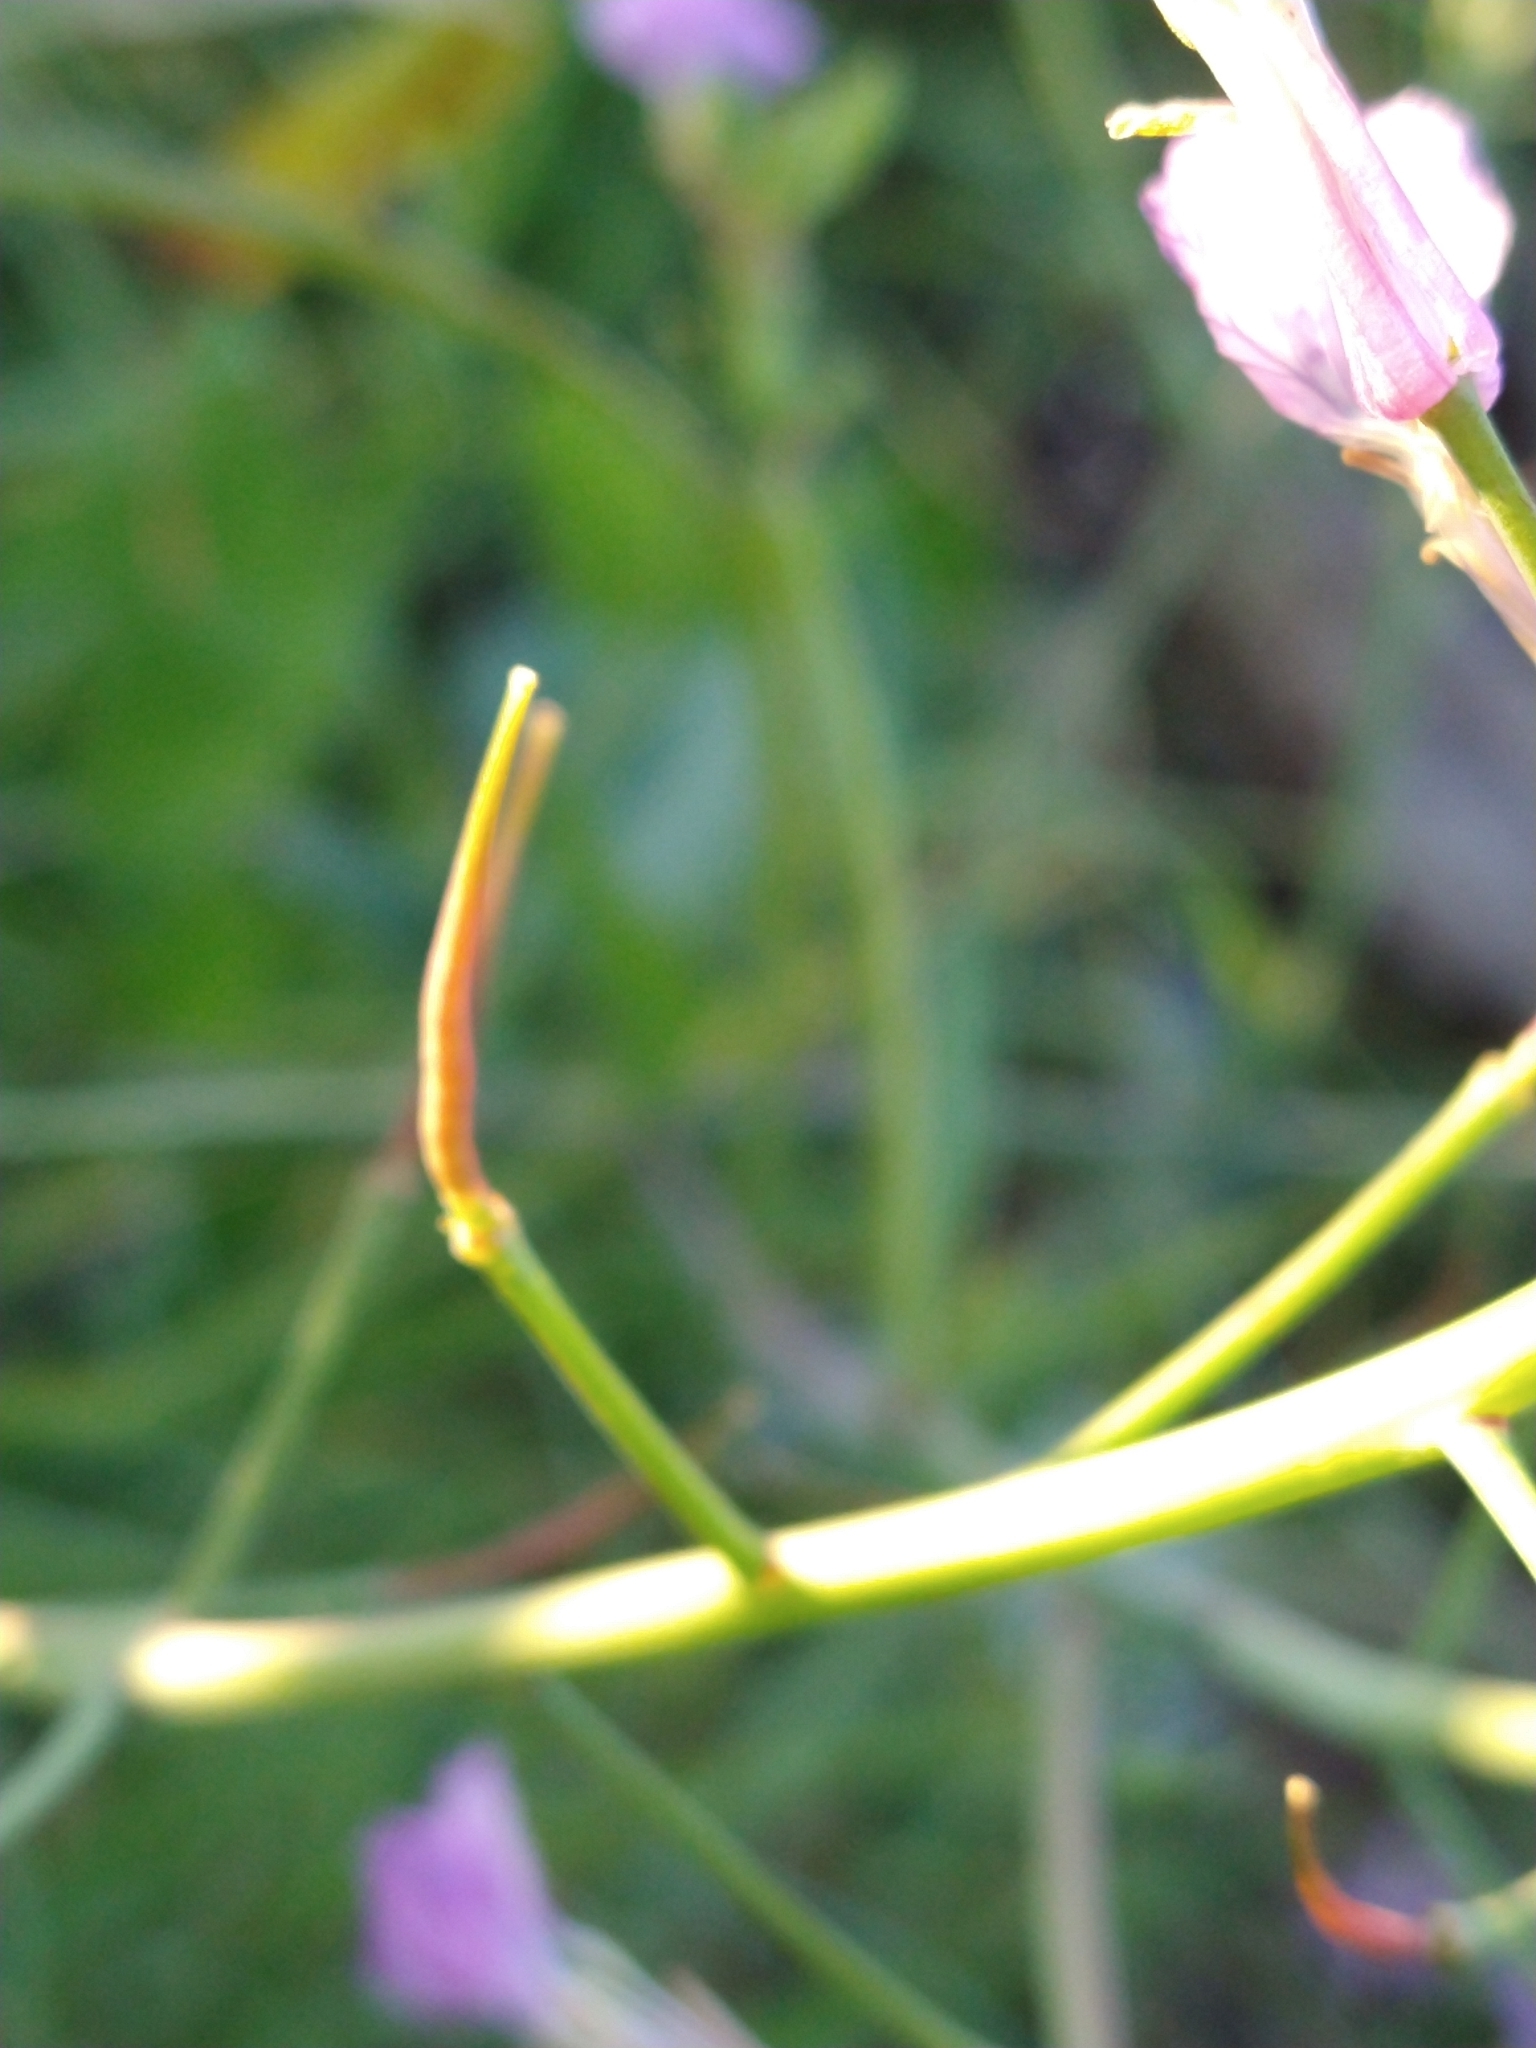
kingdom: Plantae
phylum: Tracheophyta
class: Magnoliopsida
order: Brassicales
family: Brassicaceae
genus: Raphanus
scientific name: Raphanus sativus
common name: Cultivated radish
